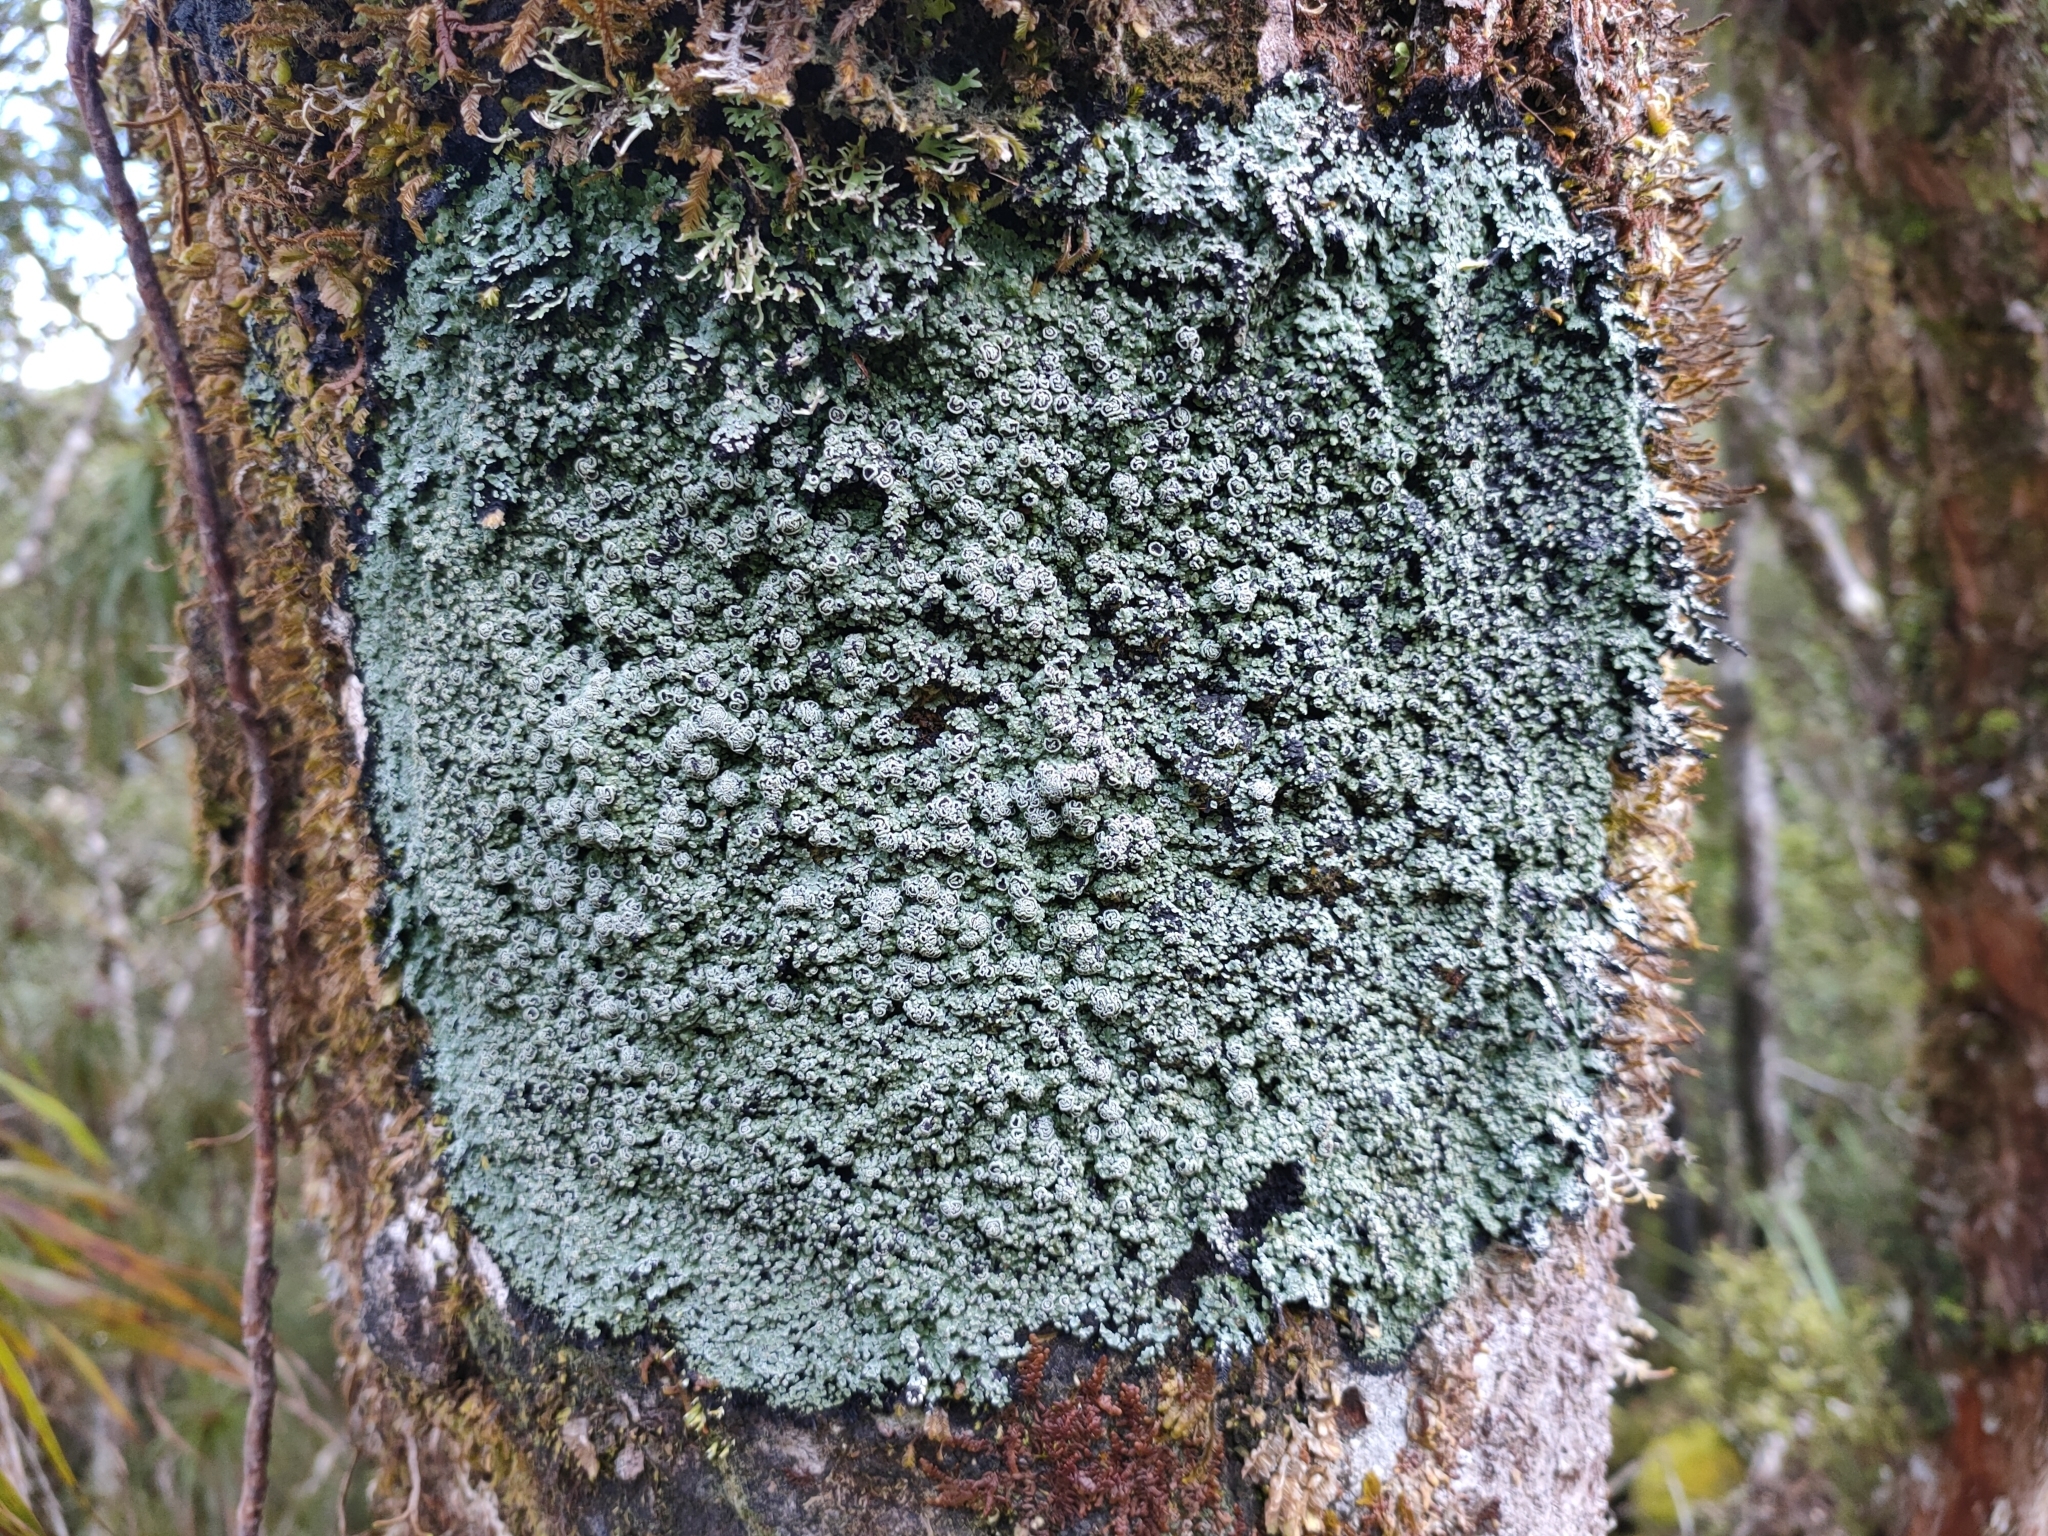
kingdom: Fungi
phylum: Ascomycota
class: Lecanoromycetes
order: Peltigerales
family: Pannariaceae
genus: Xanthopsoroma
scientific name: Xanthopsoroma contextum
